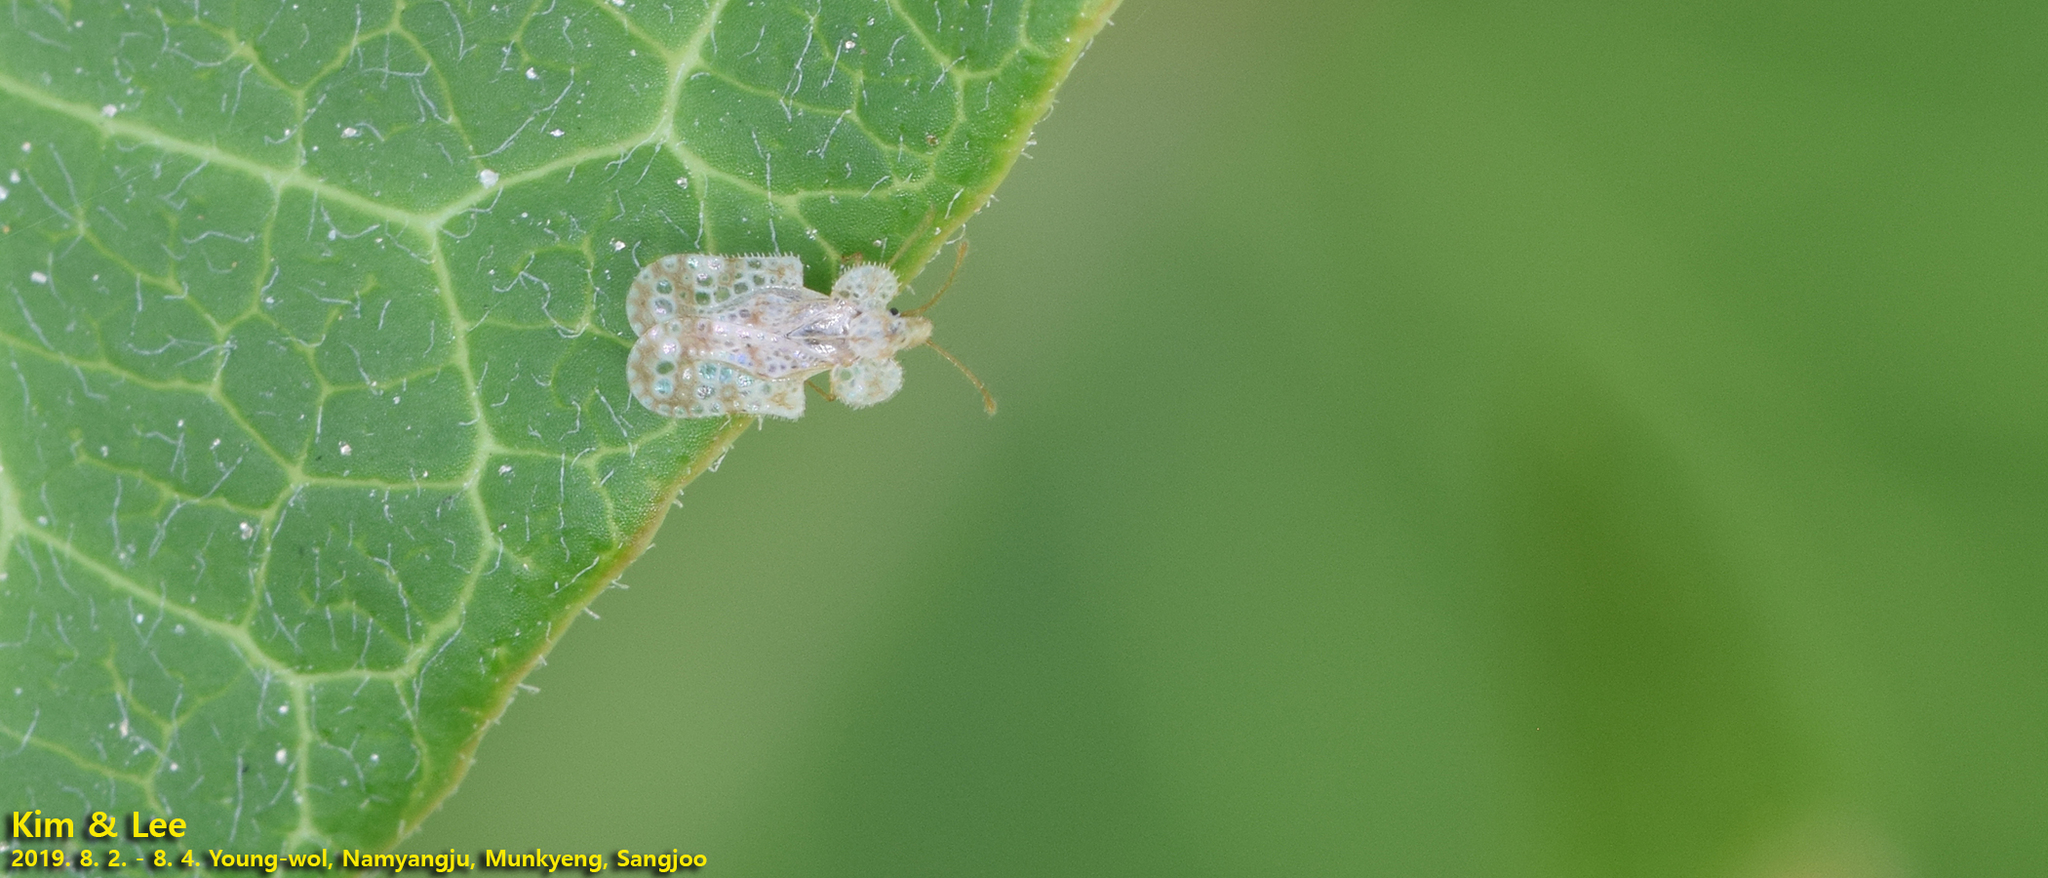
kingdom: Animalia
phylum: Arthropoda
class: Insecta
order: Hemiptera
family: Tingidae
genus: Corythucha
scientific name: Corythucha marmorata
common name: Chrysanthemum lace bug
